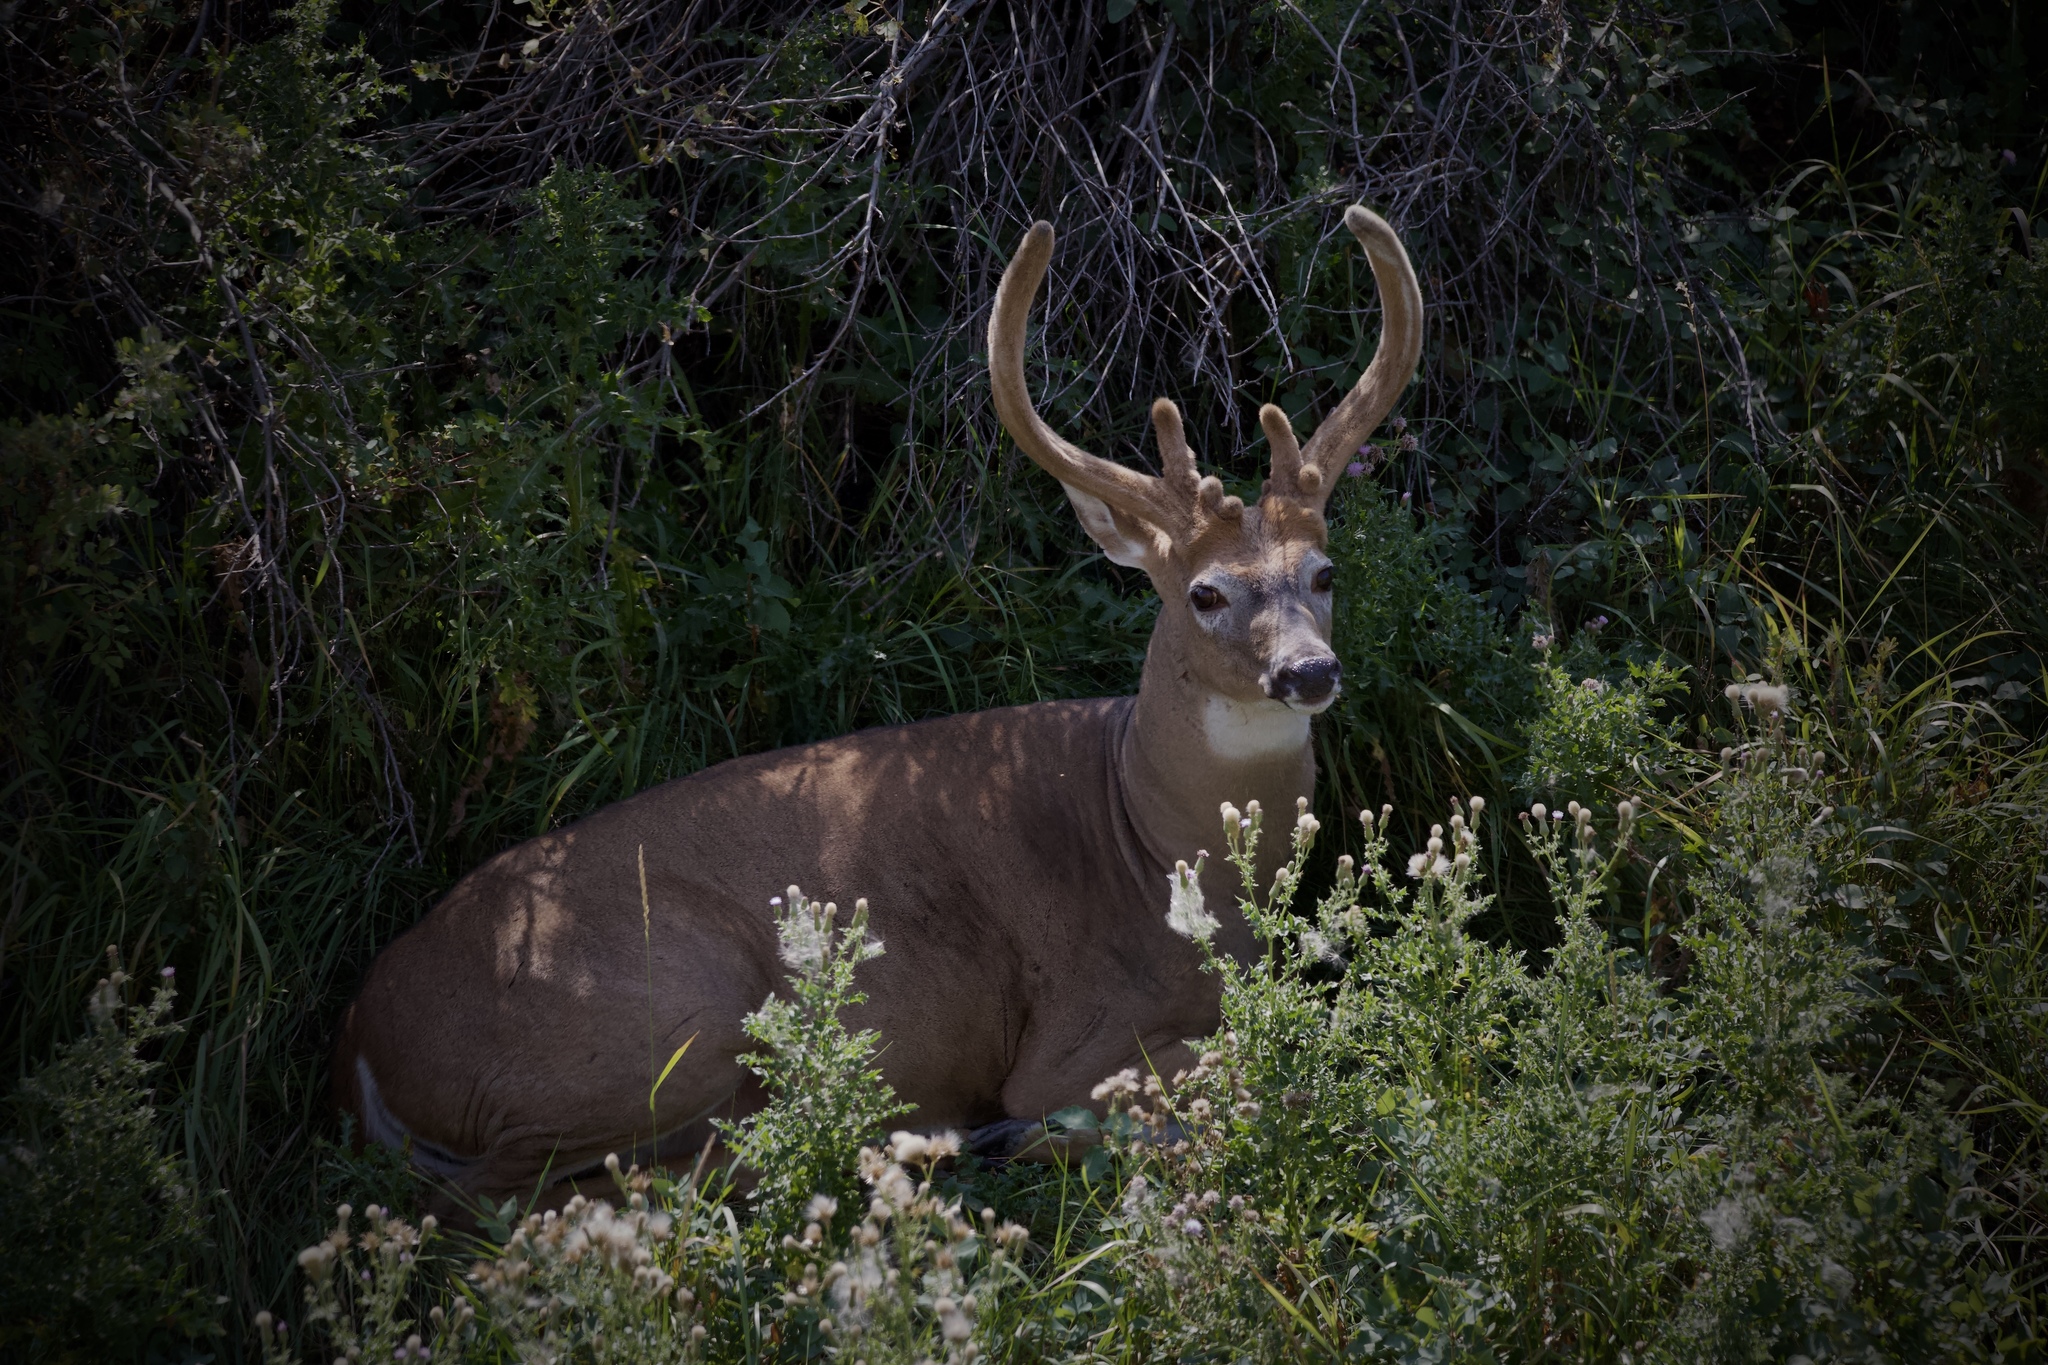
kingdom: Animalia
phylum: Chordata
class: Mammalia
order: Artiodactyla
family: Cervidae
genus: Odocoileus
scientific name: Odocoileus virginianus
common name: White-tailed deer
